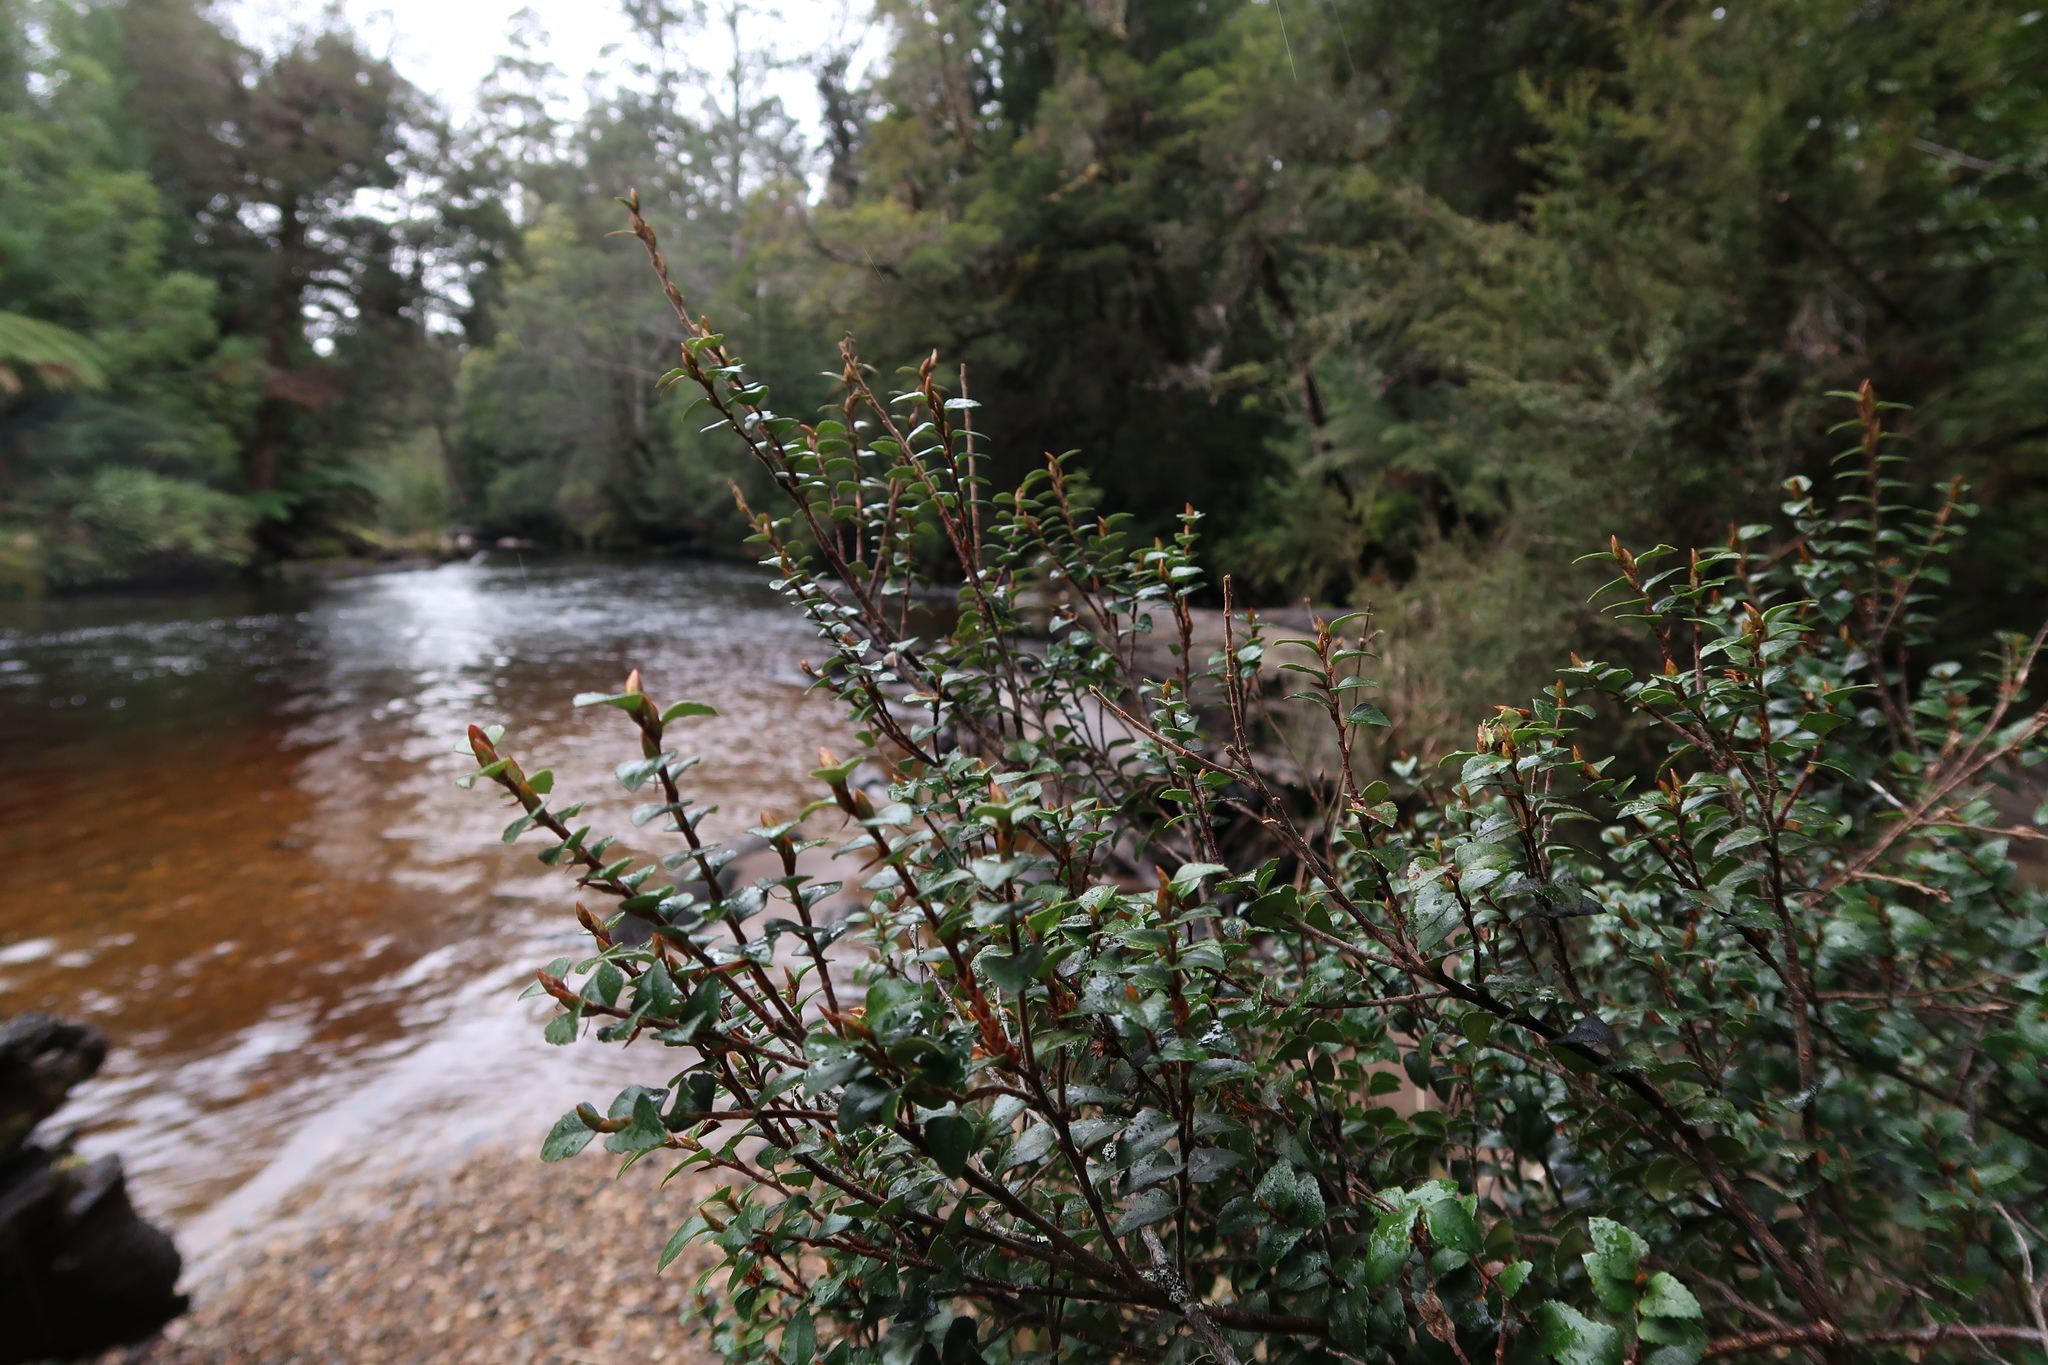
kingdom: Plantae
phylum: Tracheophyta
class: Magnoliopsida
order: Fagales
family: Nothofagaceae
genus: Nothofagus
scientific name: Nothofagus cunninghamii
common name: Myrtle beech
